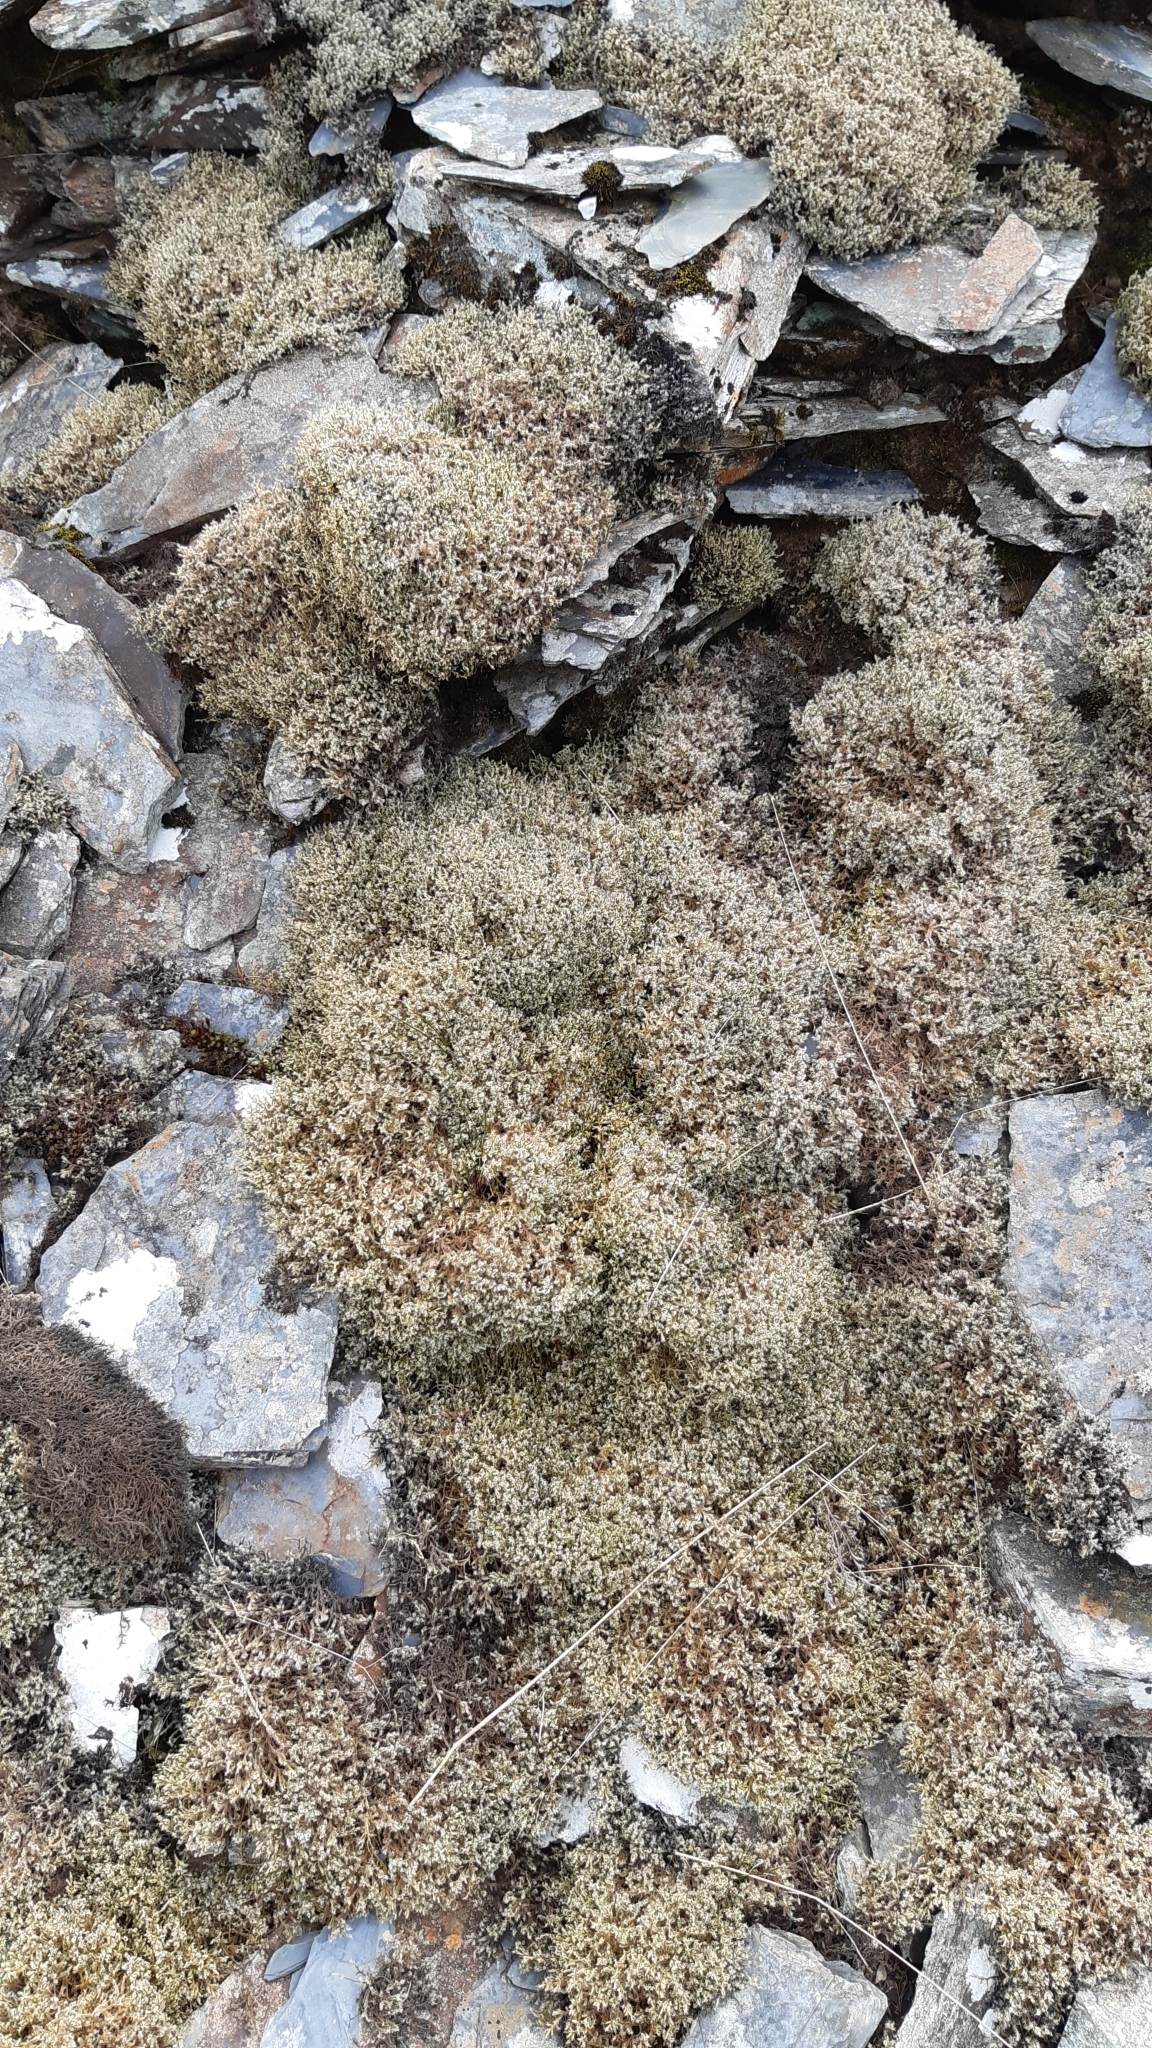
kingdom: Plantae
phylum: Bryophyta
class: Bryopsida
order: Grimmiales
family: Grimmiaceae
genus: Racomitrium
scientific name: Racomitrium lanuginosum
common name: Hoary rock moss
